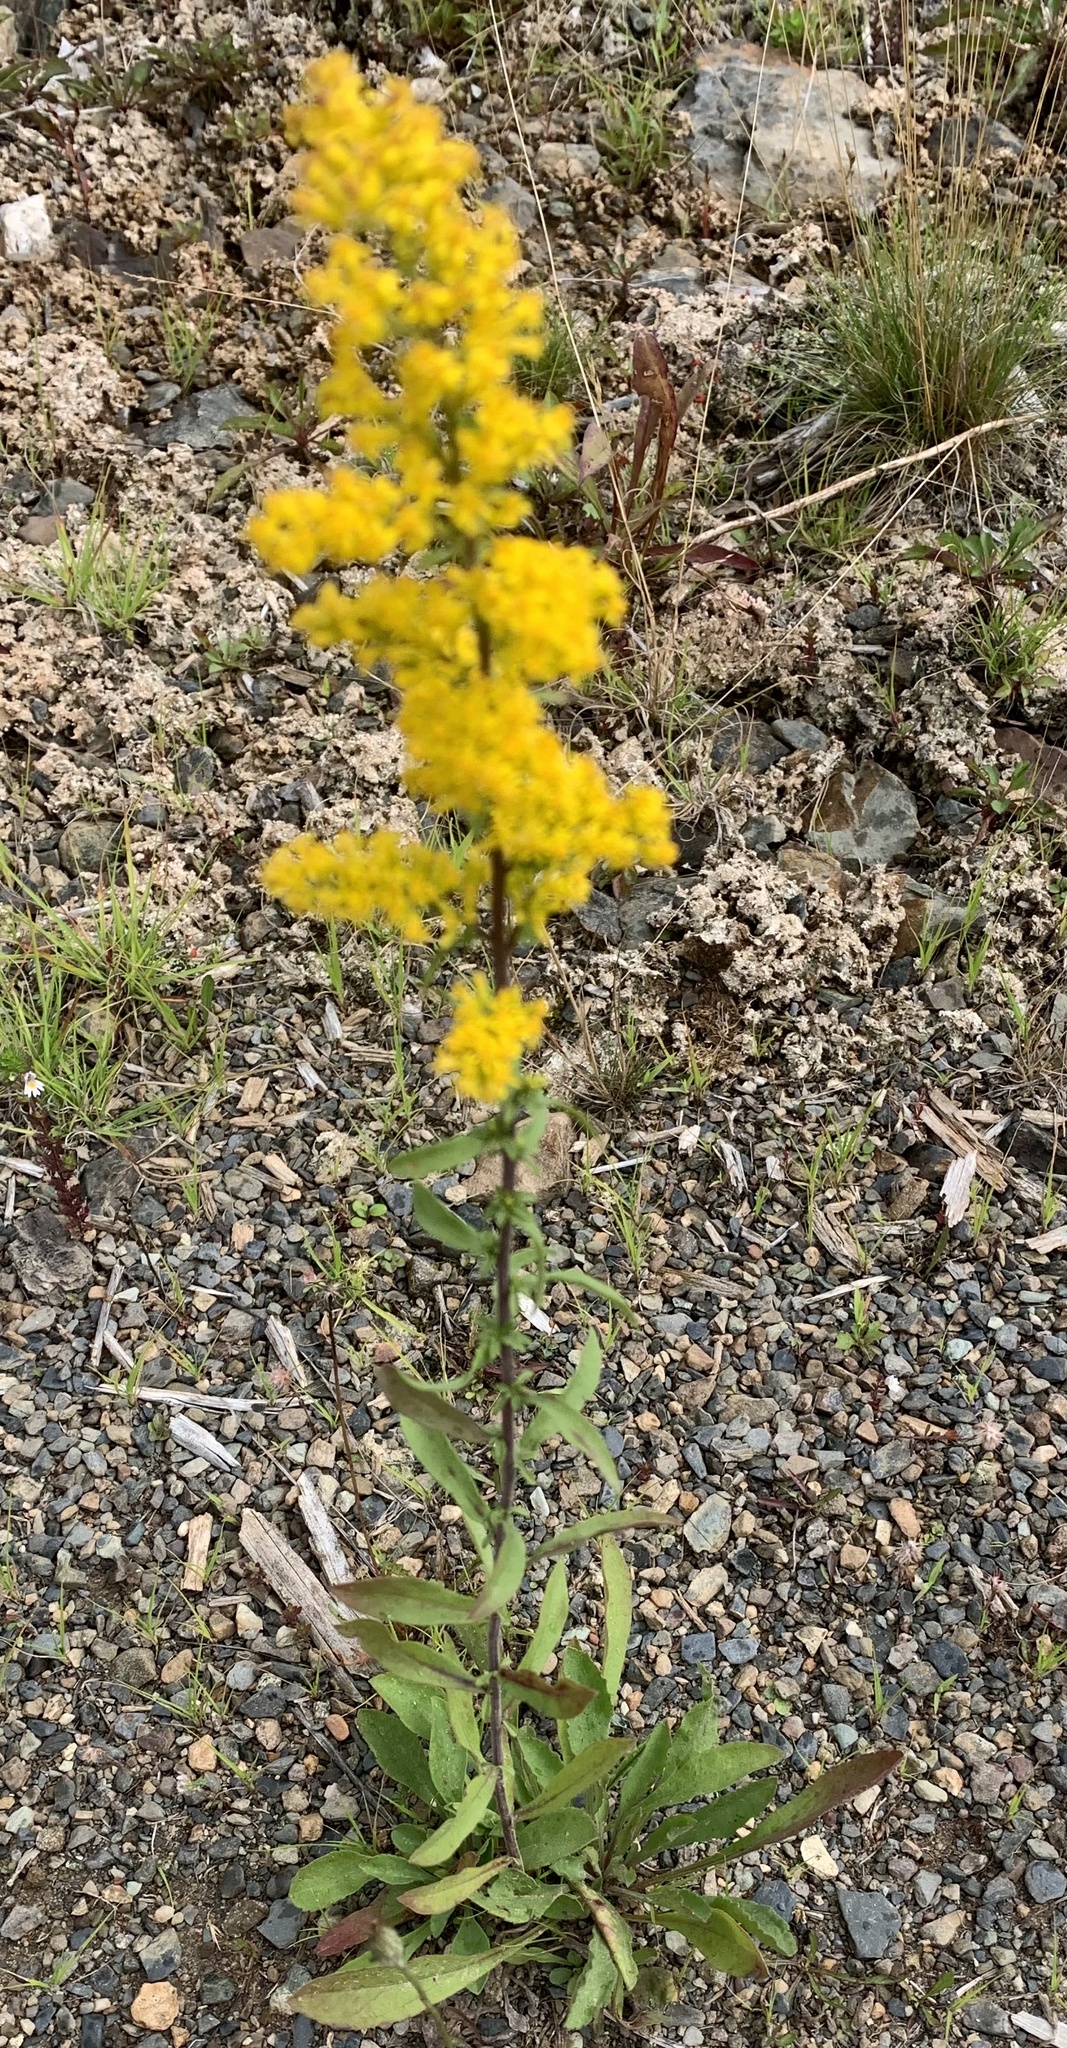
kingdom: Plantae
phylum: Tracheophyta
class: Magnoliopsida
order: Asterales
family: Asteraceae
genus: Solidago
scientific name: Solidago nemoralis
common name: Grey goldenrod
